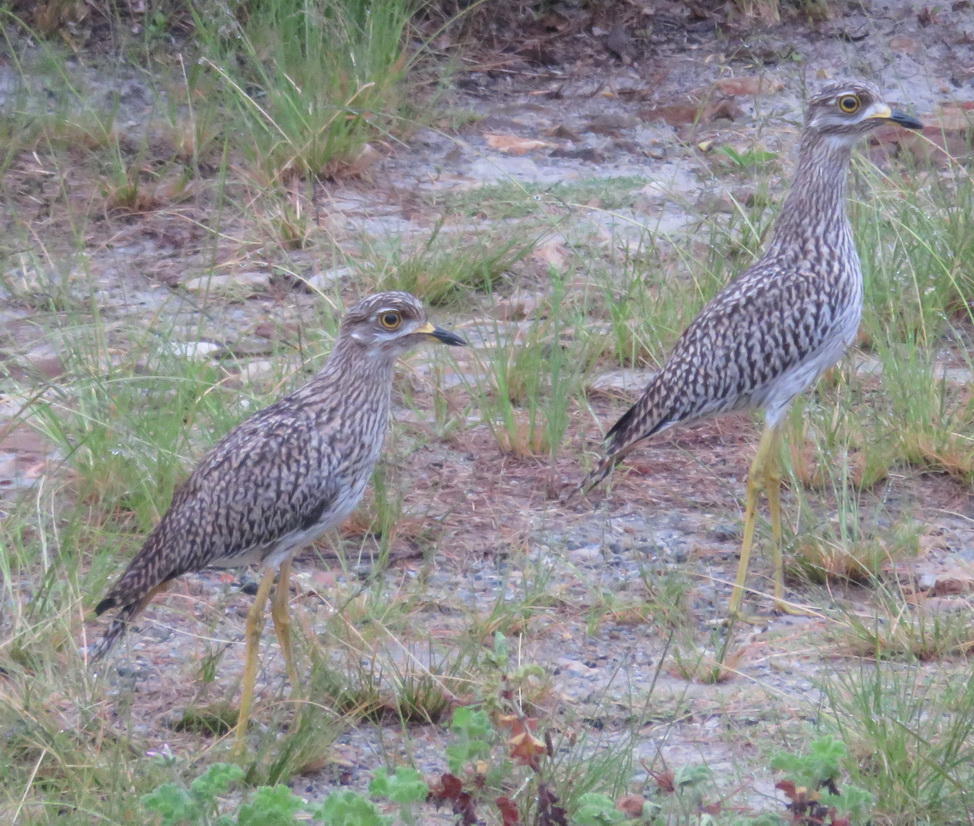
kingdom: Animalia
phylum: Chordata
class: Aves
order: Charadriiformes
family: Burhinidae
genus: Burhinus
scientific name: Burhinus capensis
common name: Spotted thick-knee
